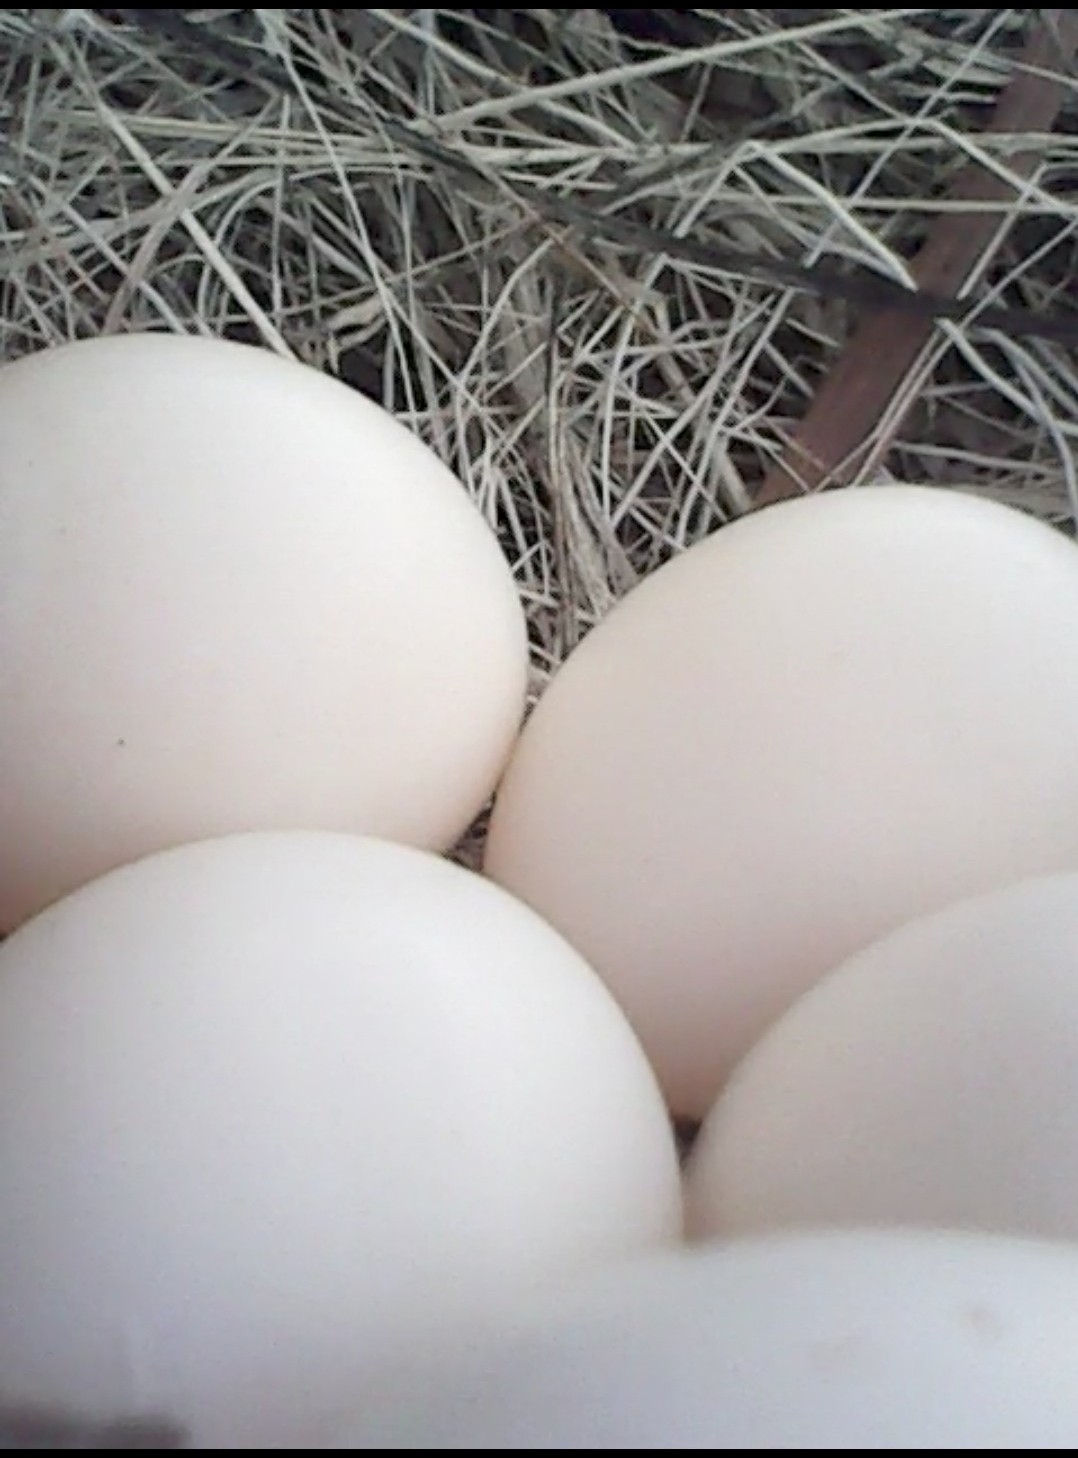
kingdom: Animalia
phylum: Chordata
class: Aves
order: Passeriformes
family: Tyrannidae
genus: Sayornis
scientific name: Sayornis phoebe
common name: Eastern phoebe
